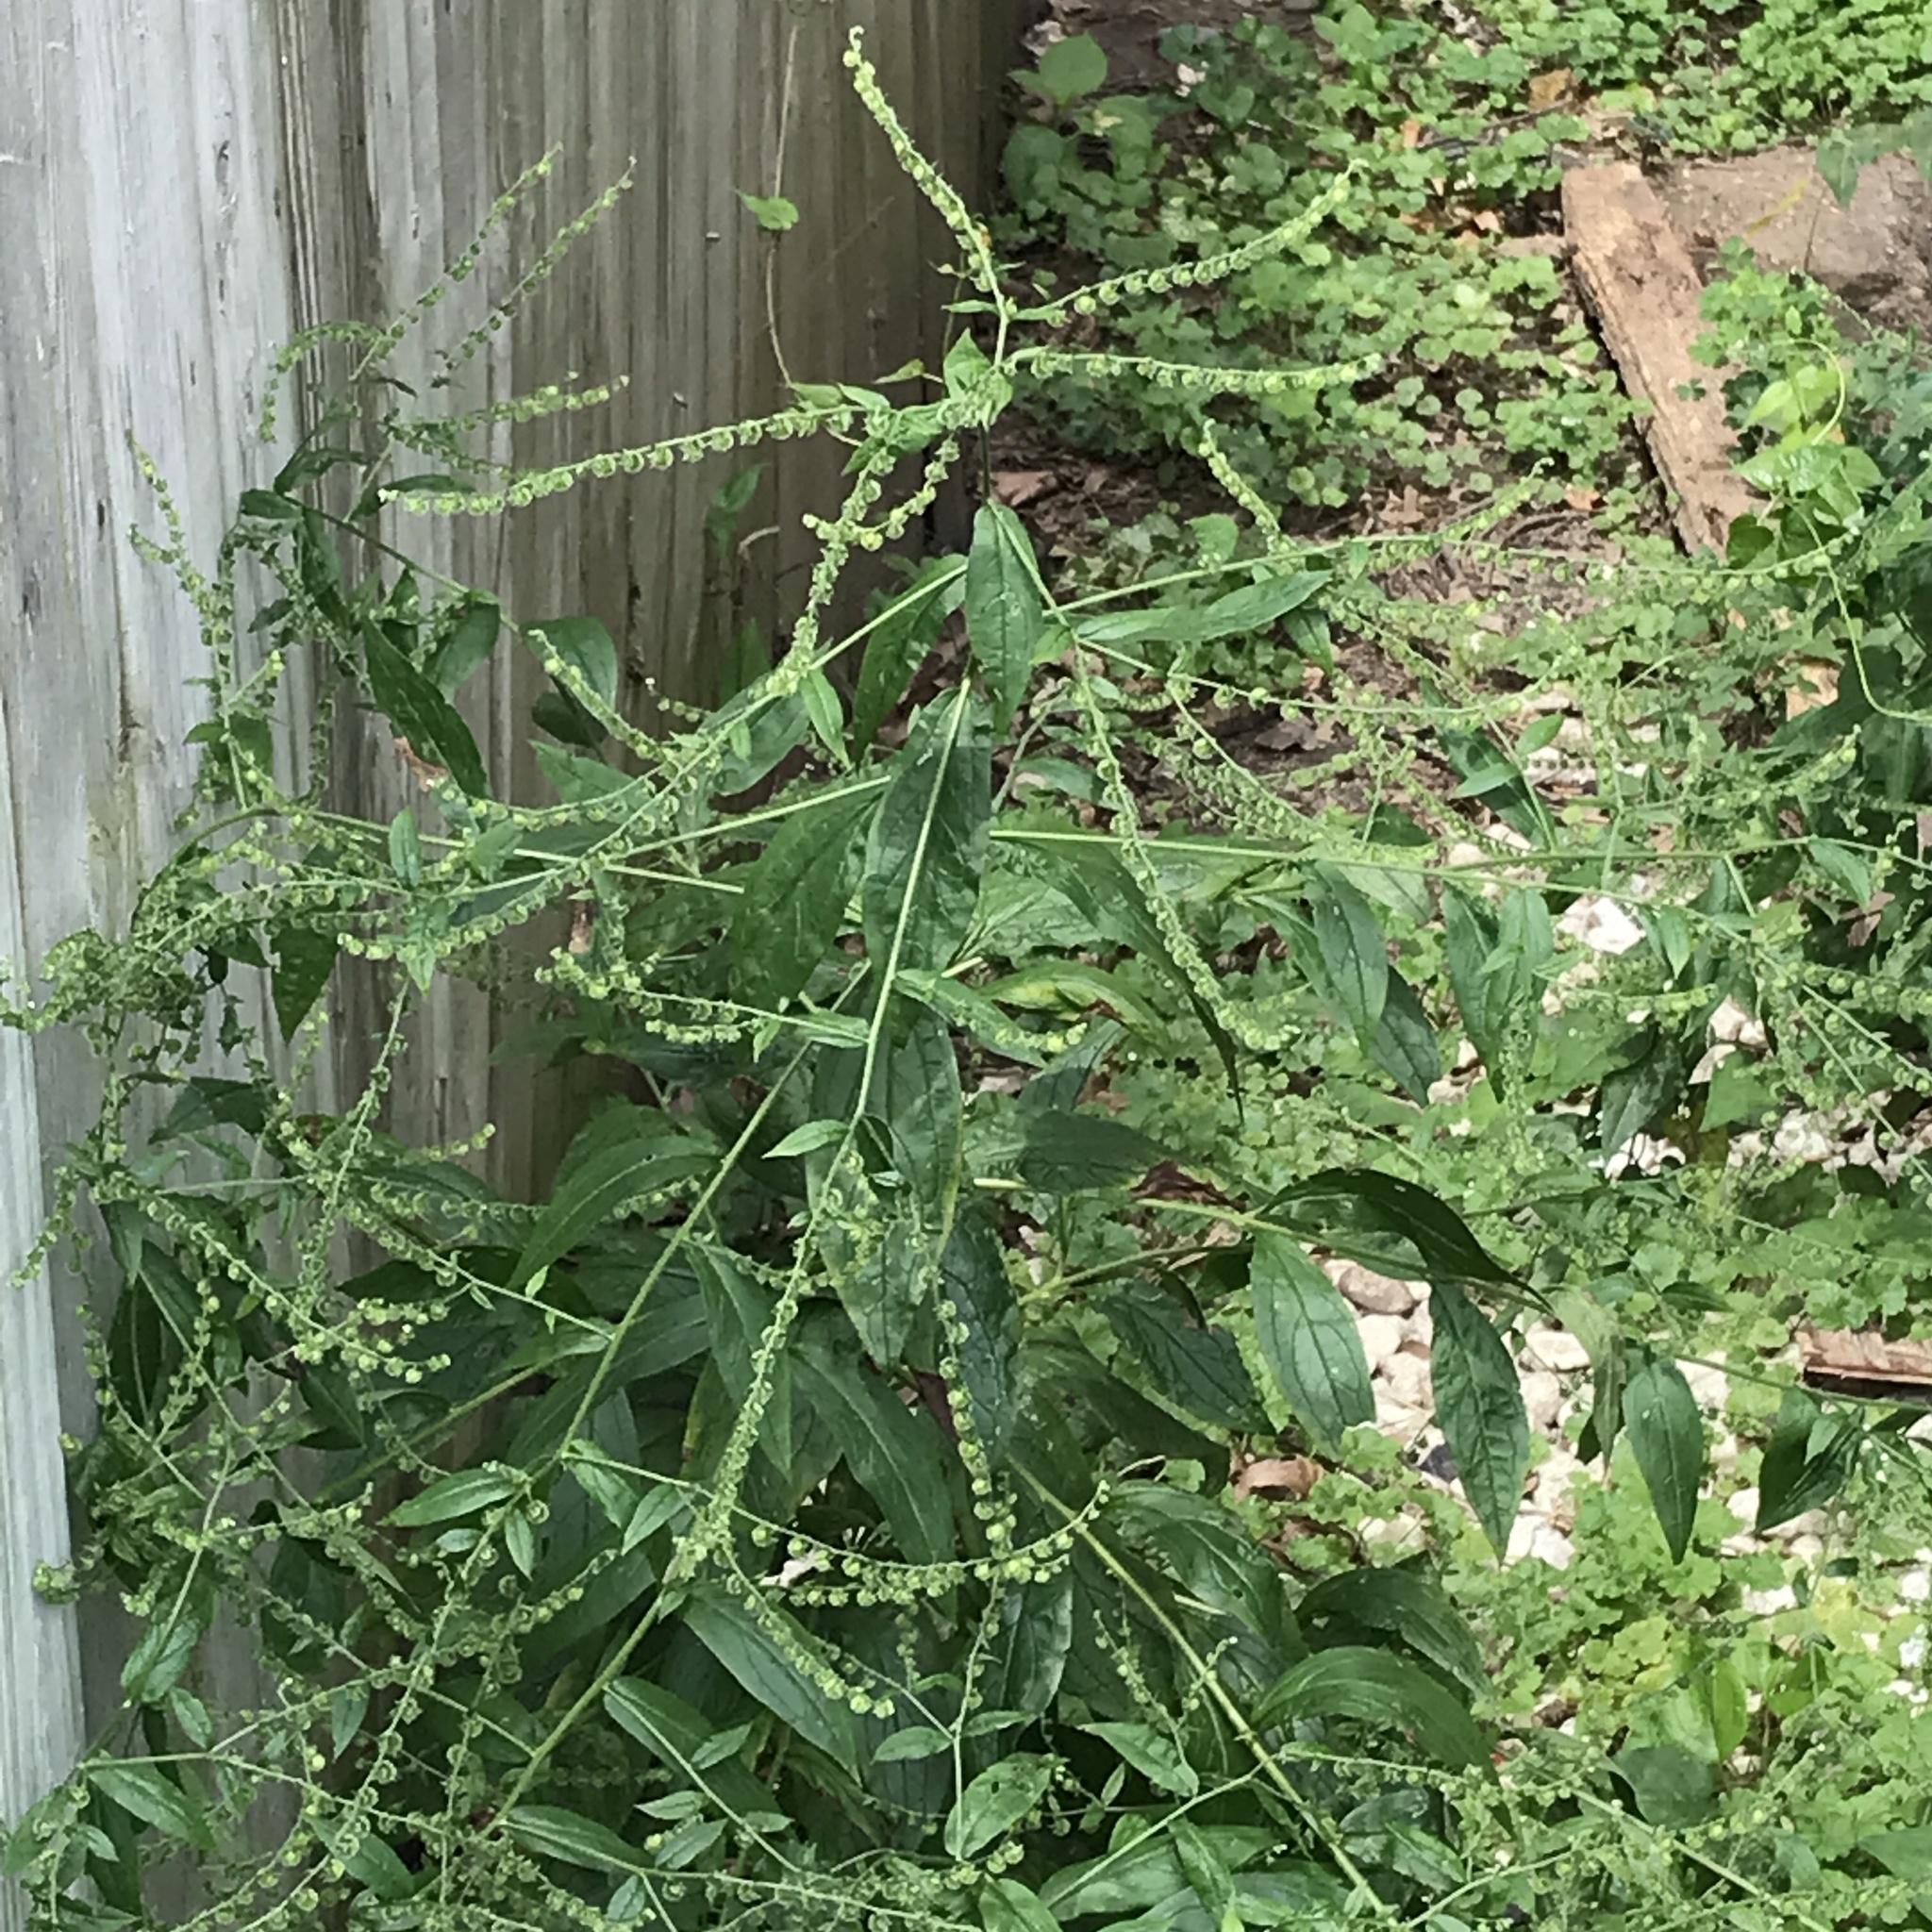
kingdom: Plantae
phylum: Tracheophyta
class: Magnoliopsida
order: Boraginales
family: Boraginaceae
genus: Hackelia
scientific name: Hackelia virginiana
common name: Beggar's-lice
